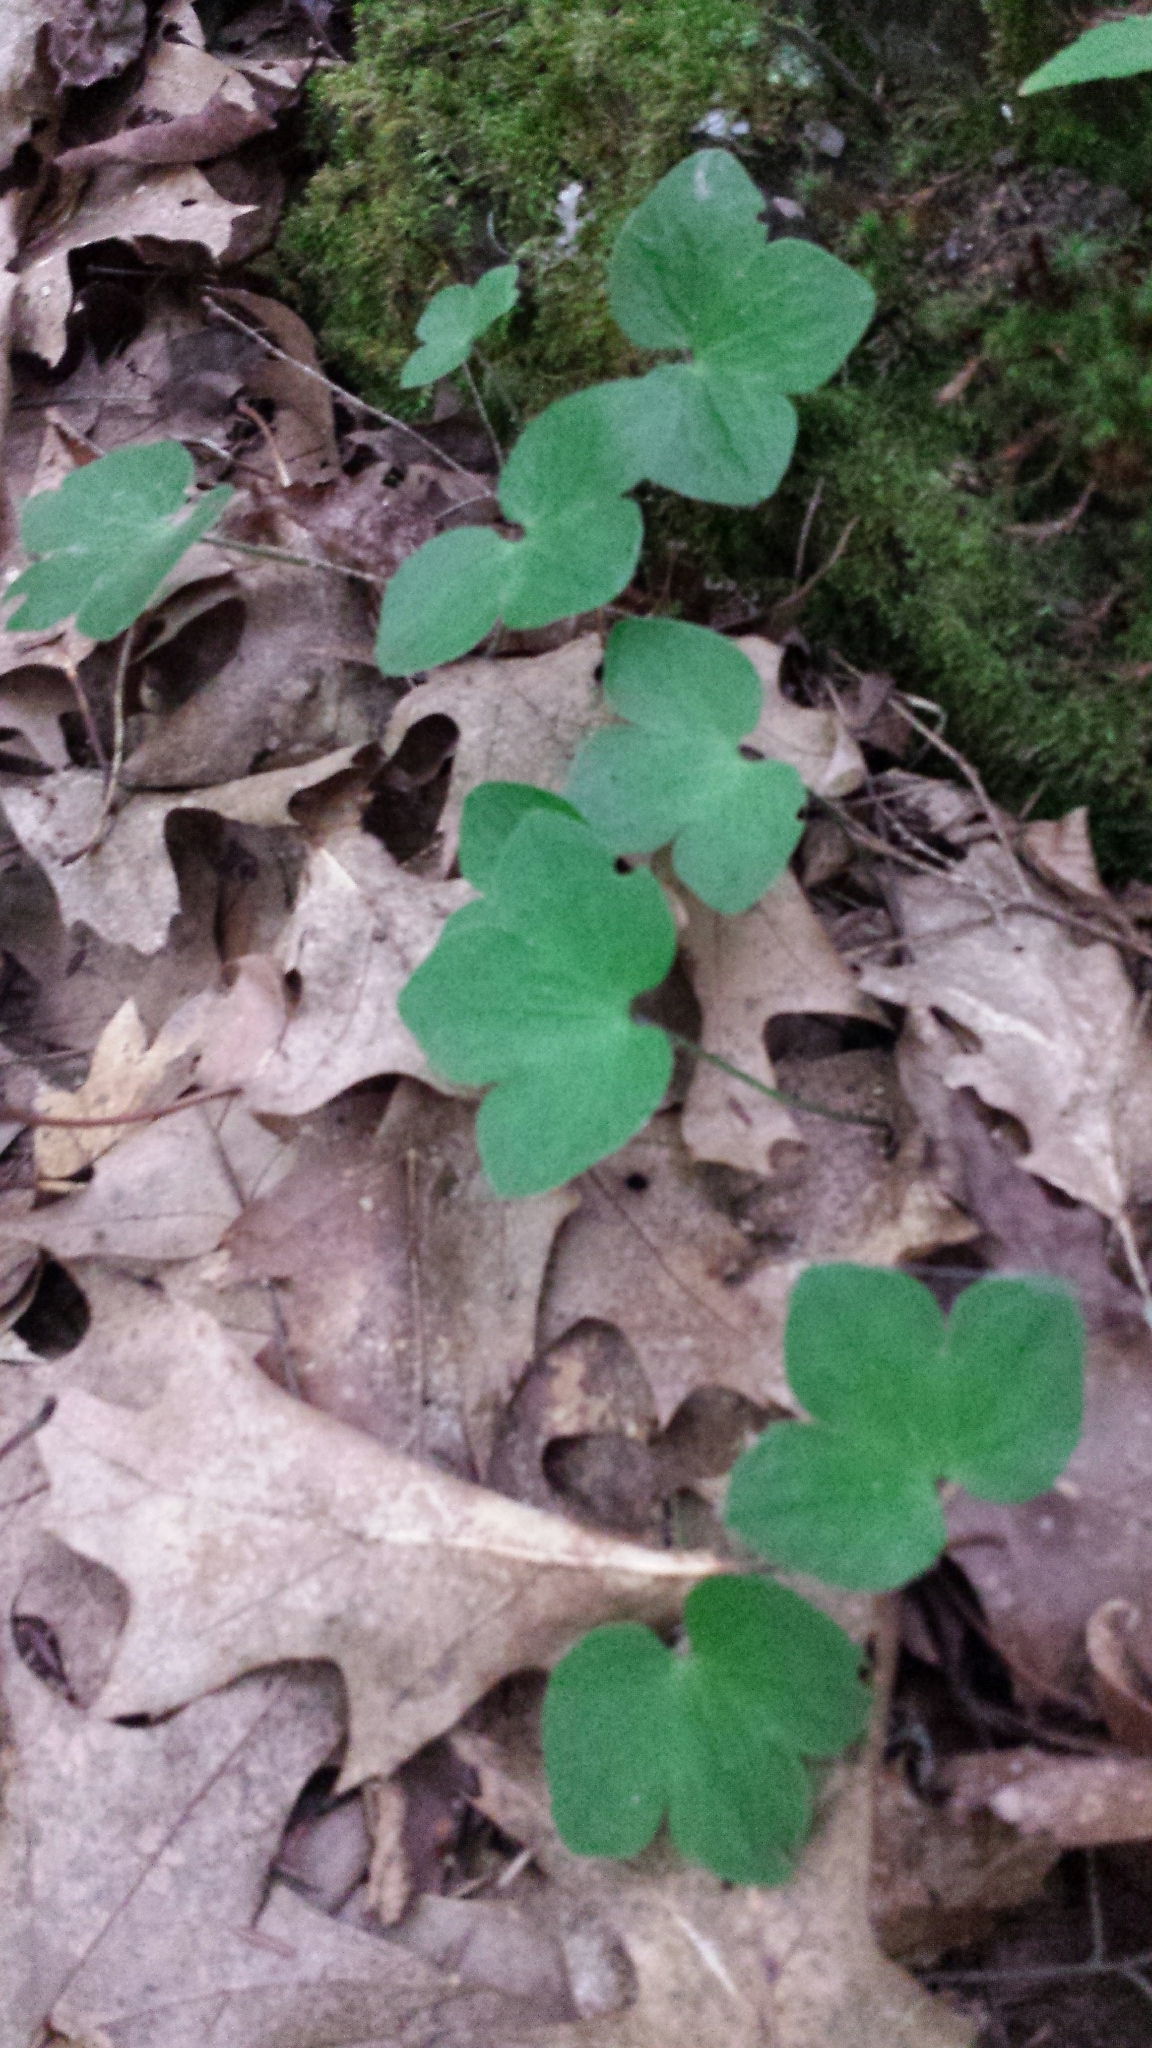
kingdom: Plantae
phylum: Tracheophyta
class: Magnoliopsida
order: Ranunculales
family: Ranunculaceae
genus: Hepatica
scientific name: Hepatica americana
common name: American hepatica
